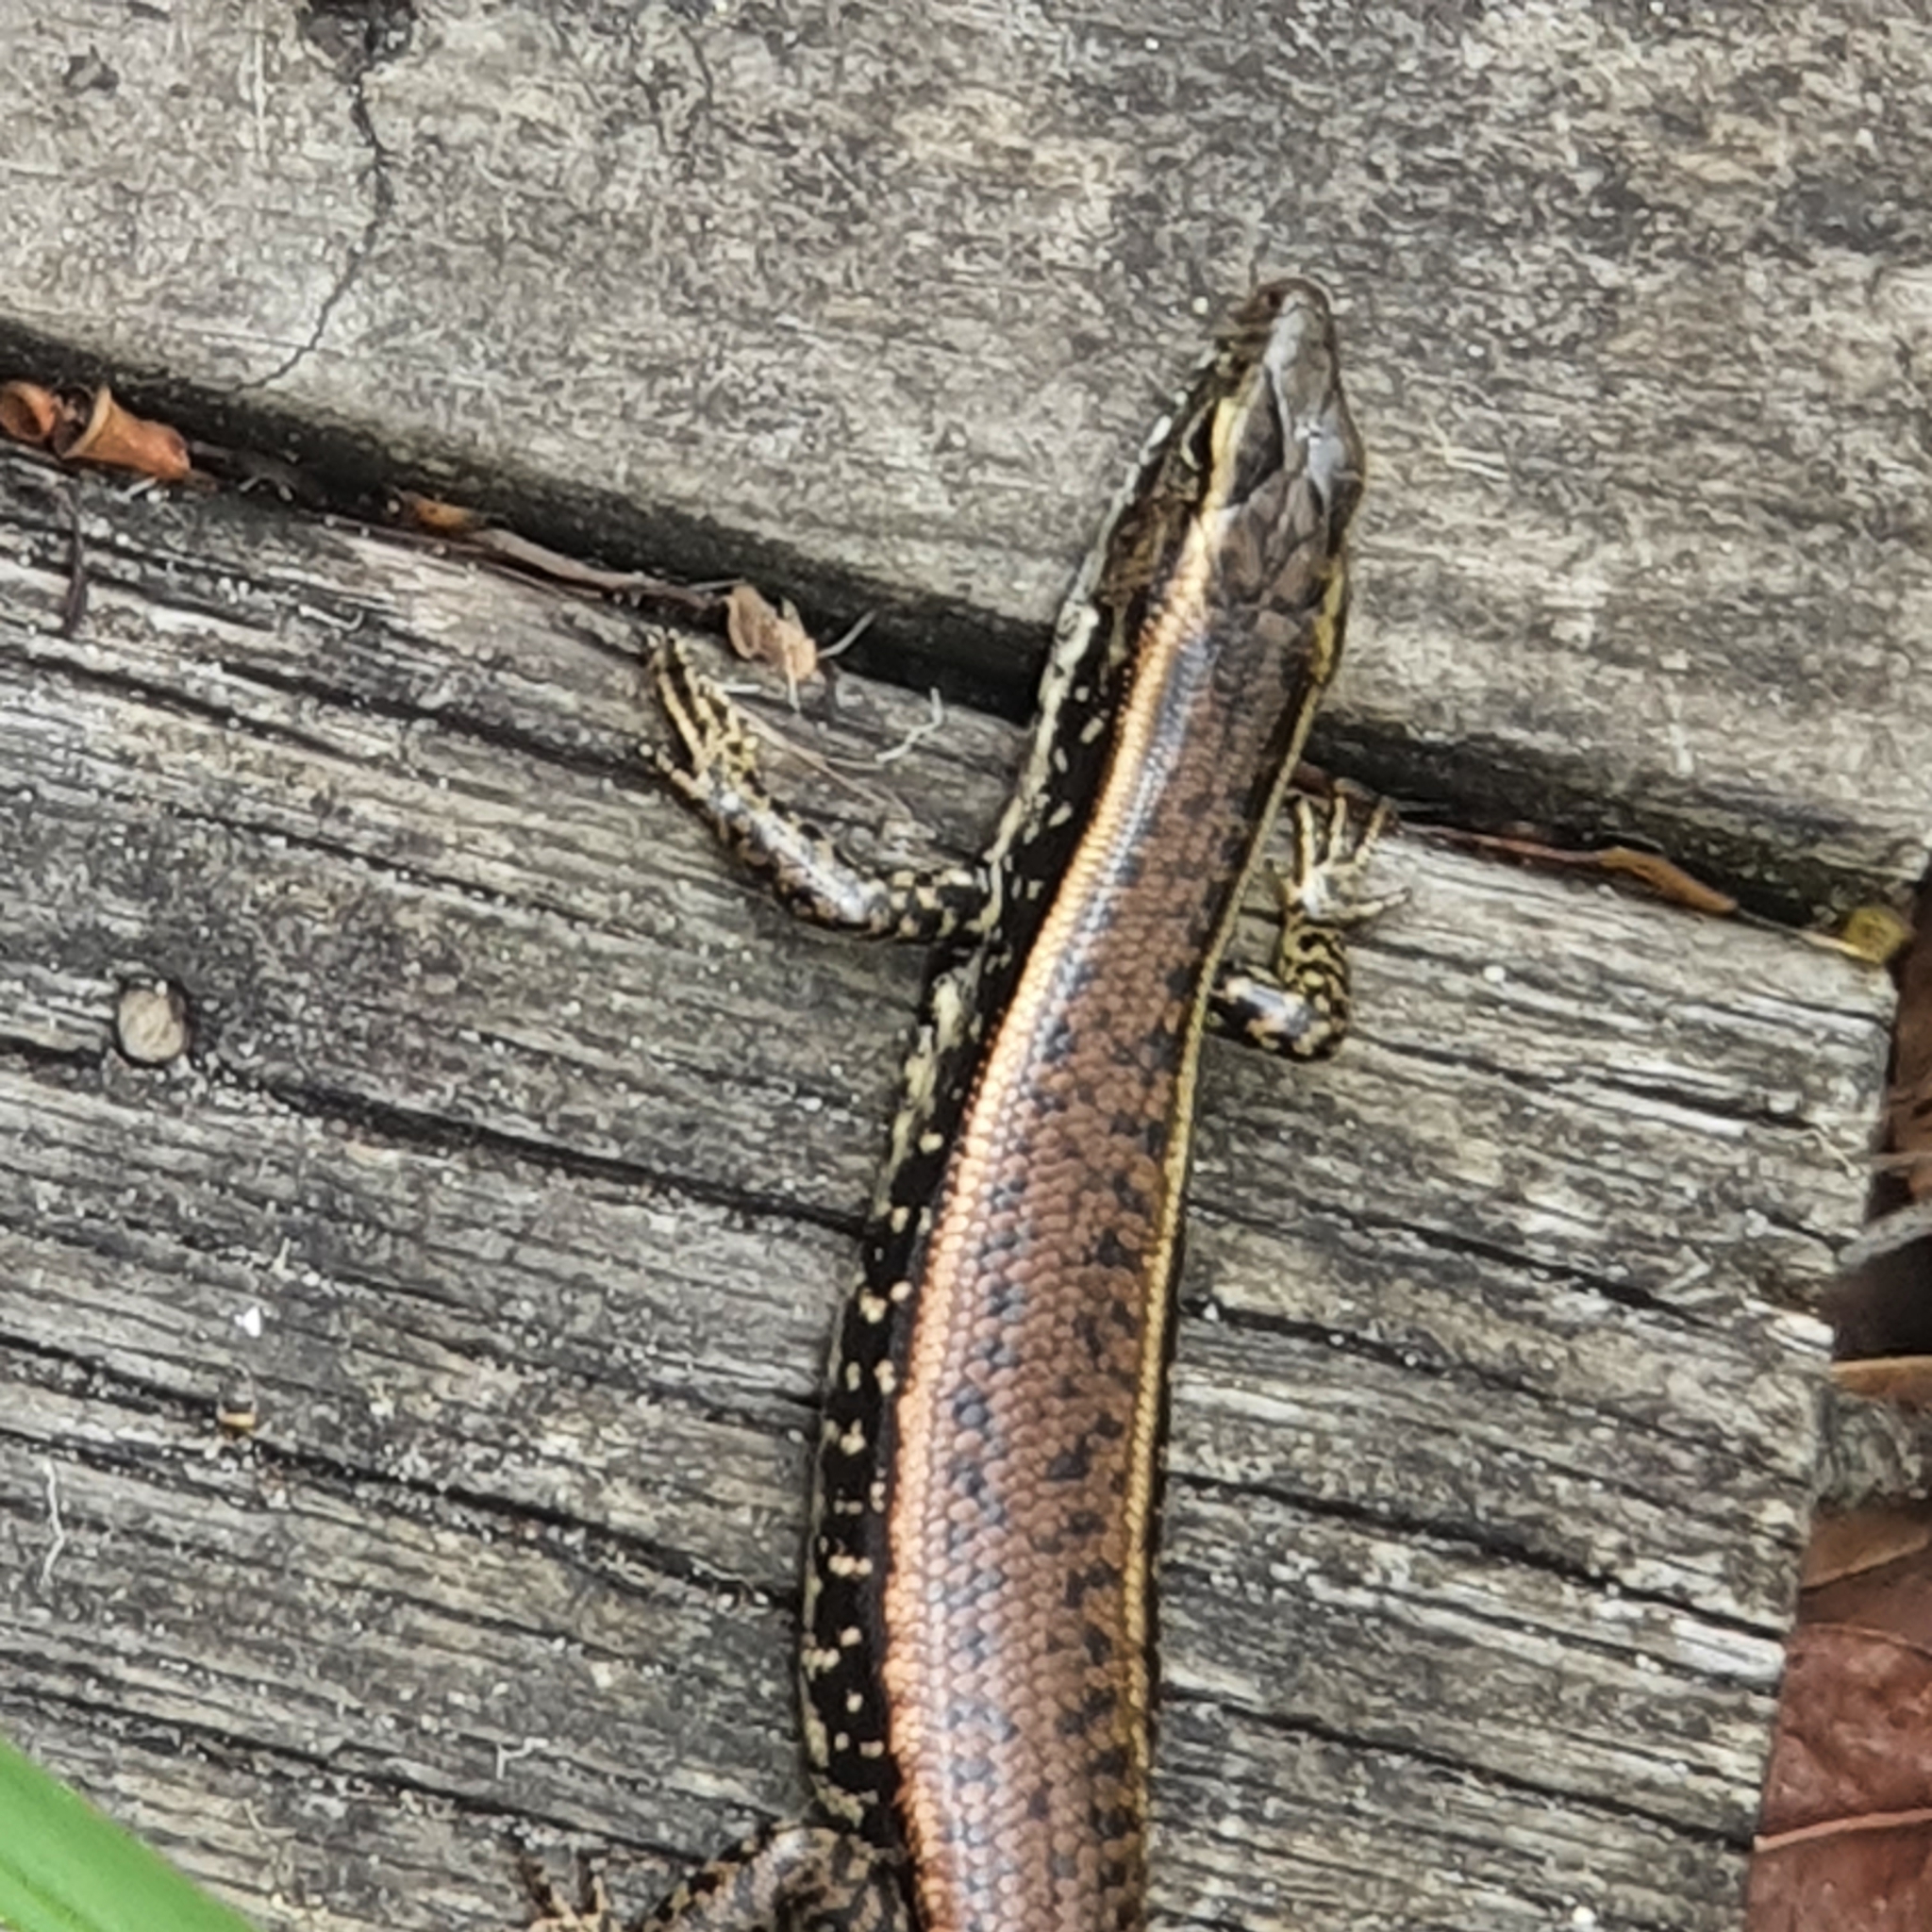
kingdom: Animalia
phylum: Chordata
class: Squamata
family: Scincidae
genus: Eulamprus
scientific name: Eulamprus quoyii
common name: Eastern water skink
